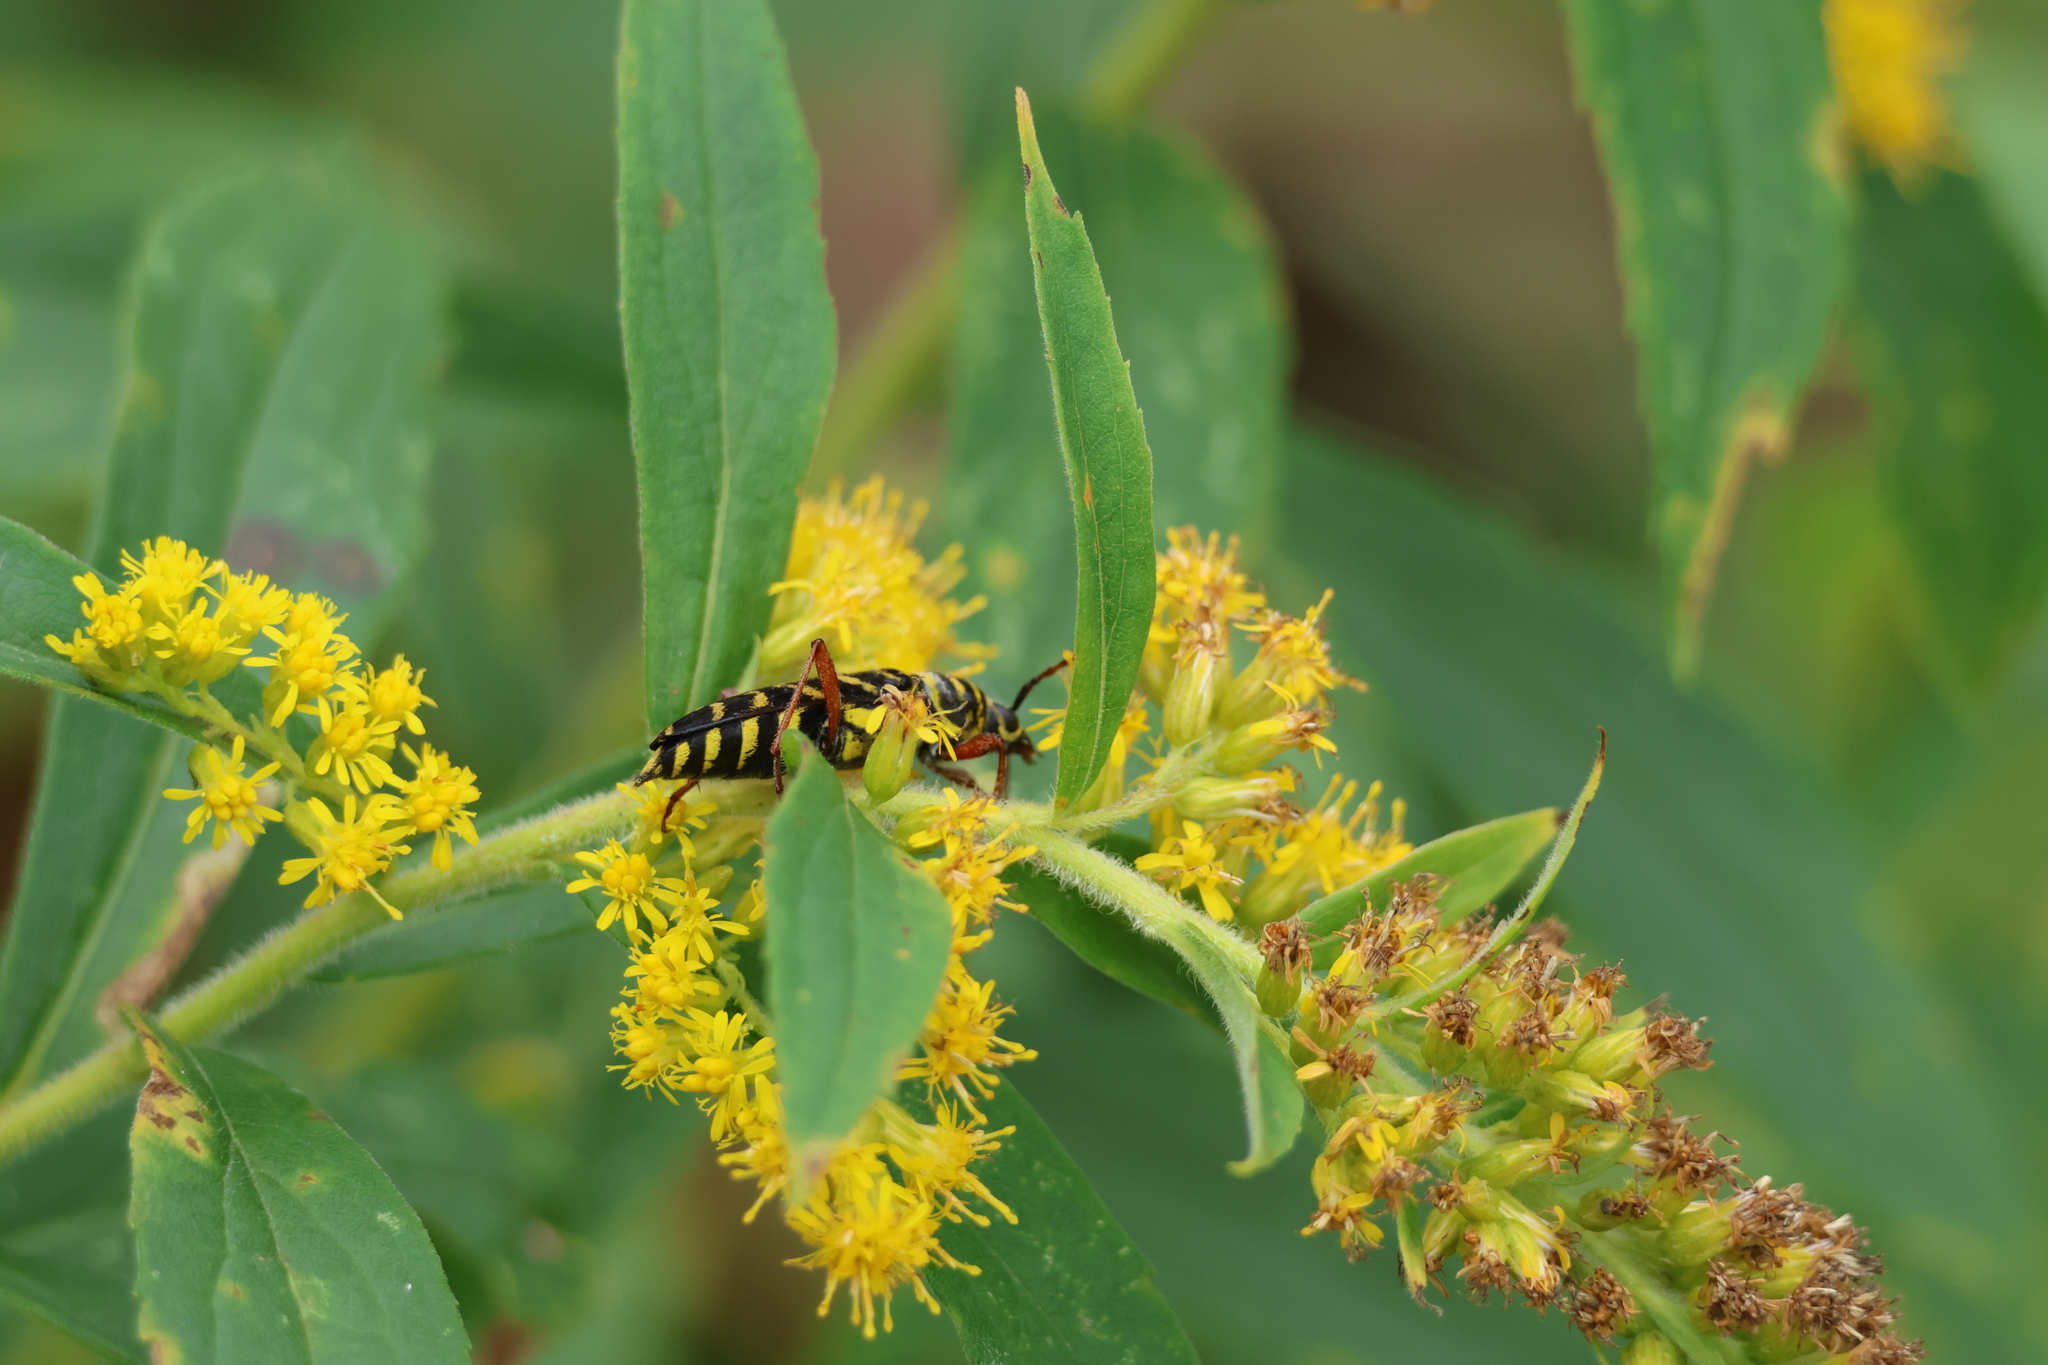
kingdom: Animalia
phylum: Arthropoda
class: Insecta
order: Coleoptera
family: Cerambycidae
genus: Megacyllene
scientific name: Megacyllene robiniae
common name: Locust borer
